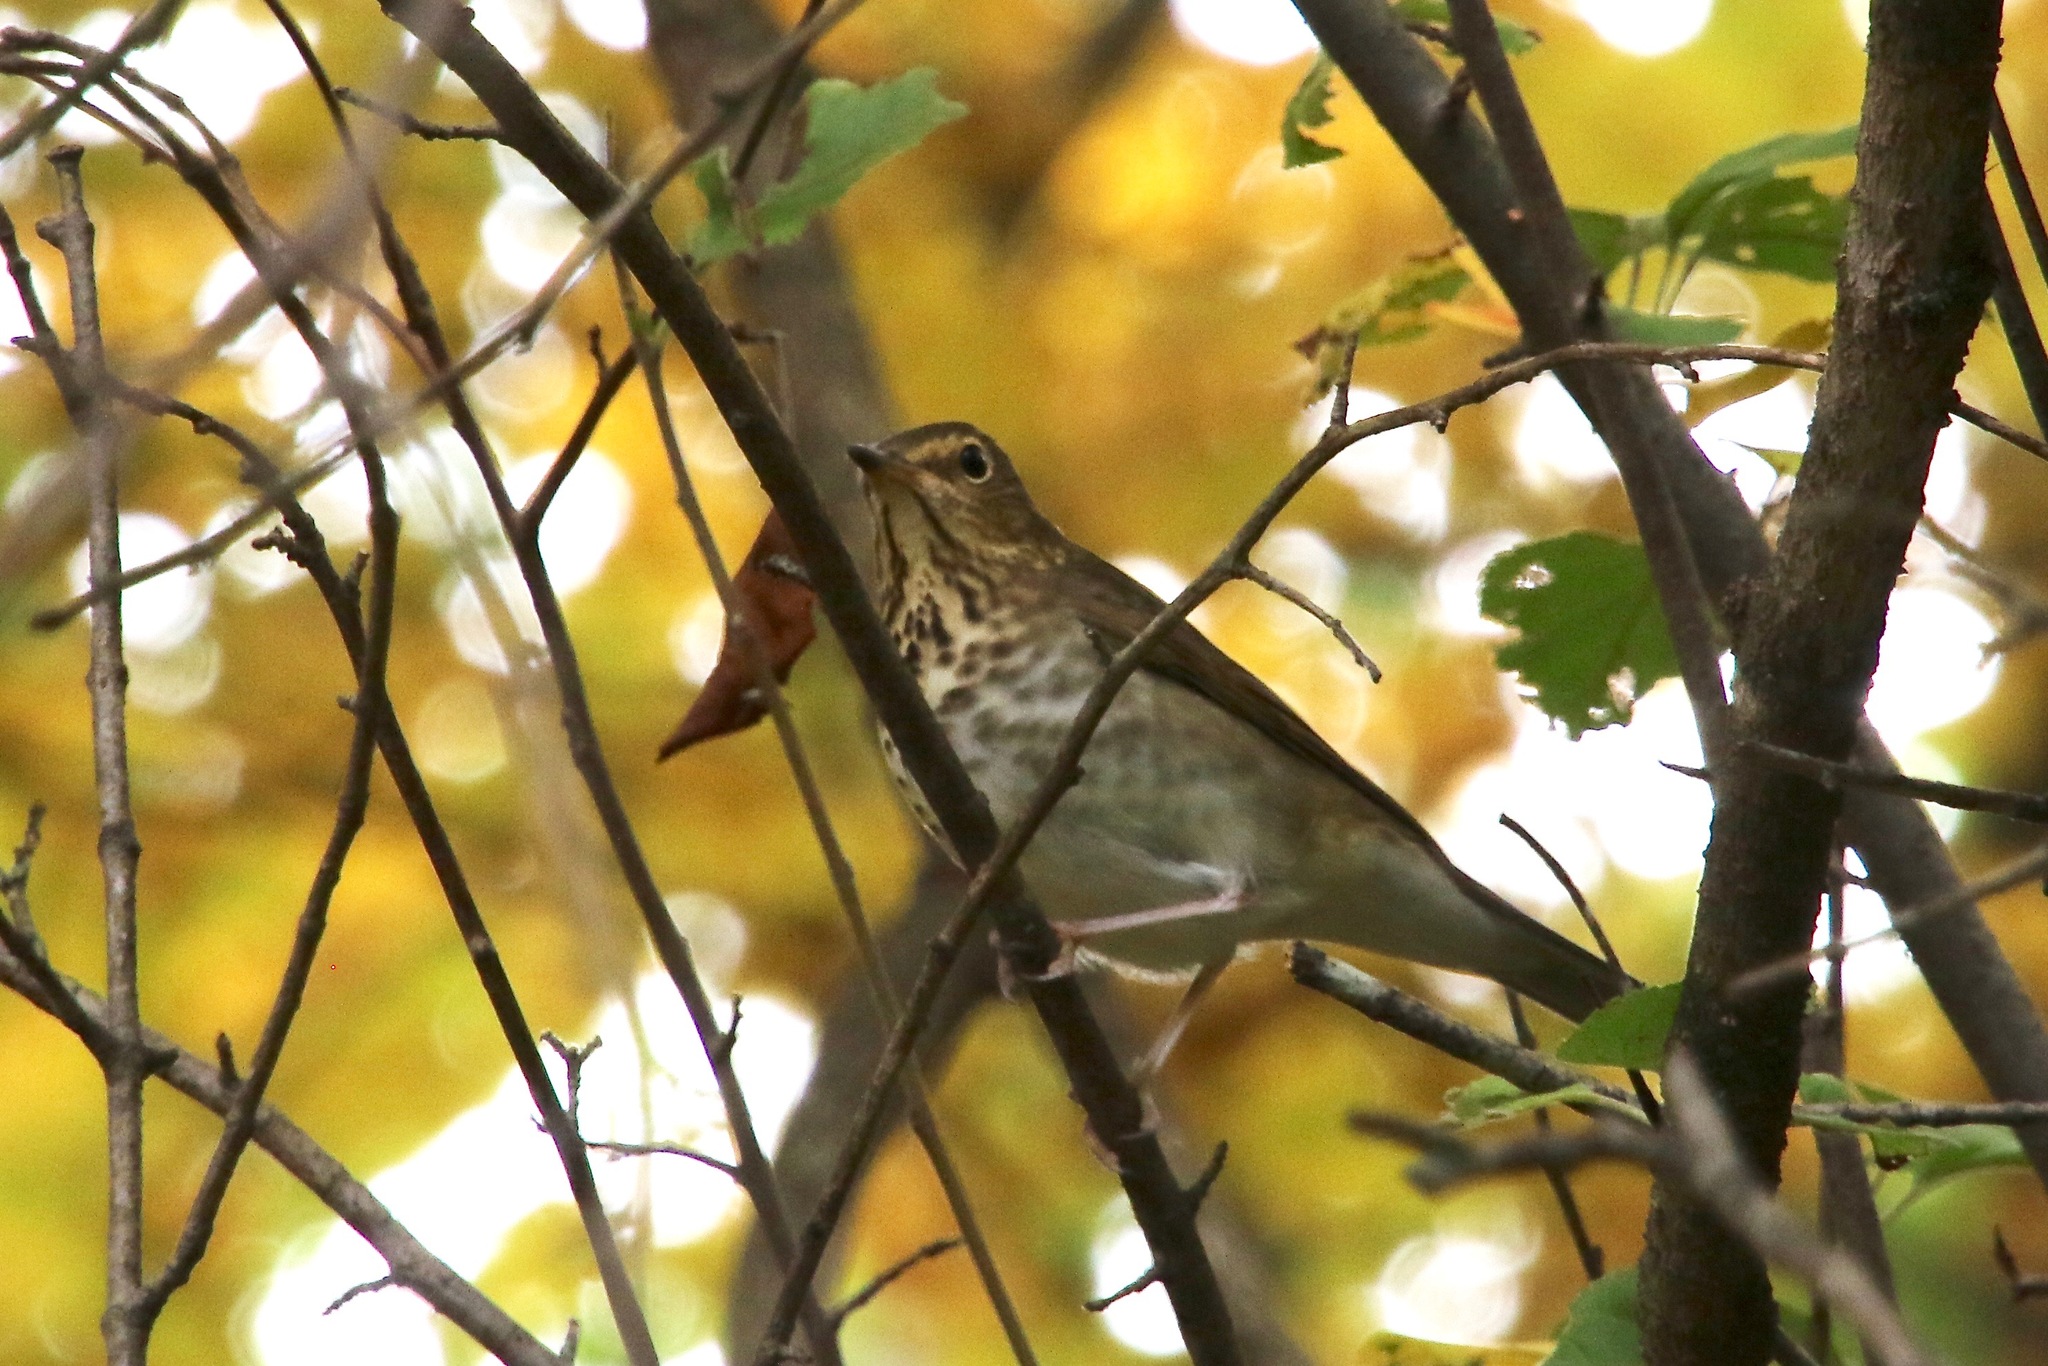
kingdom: Animalia
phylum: Chordata
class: Aves
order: Passeriformes
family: Turdidae
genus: Catharus
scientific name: Catharus ustulatus
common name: Swainson's thrush
